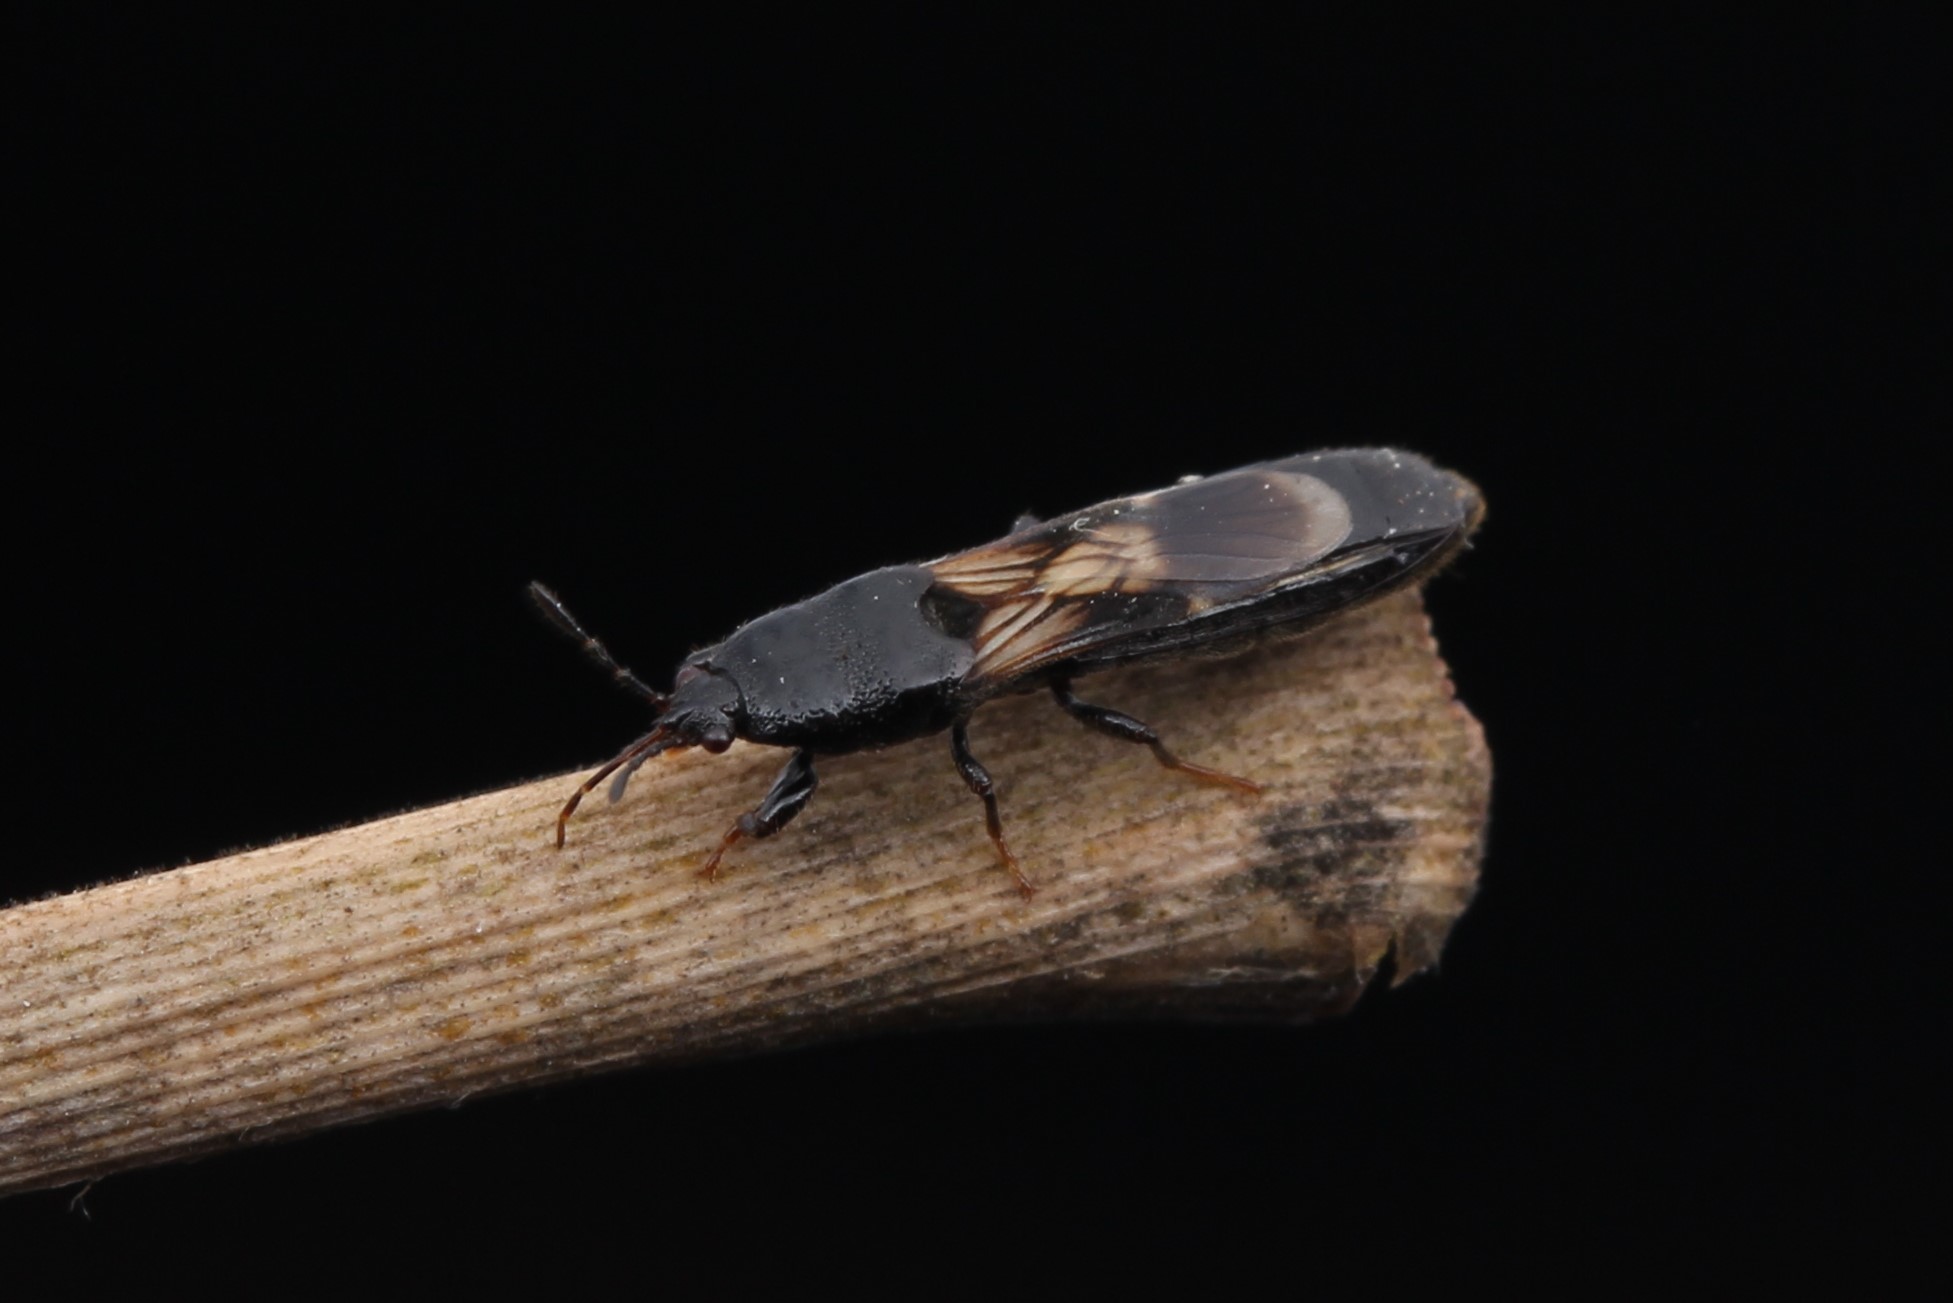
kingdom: Animalia
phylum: Arthropoda
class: Insecta
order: Hemiptera
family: Blissidae
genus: Macropes
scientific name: Macropes lobatus
